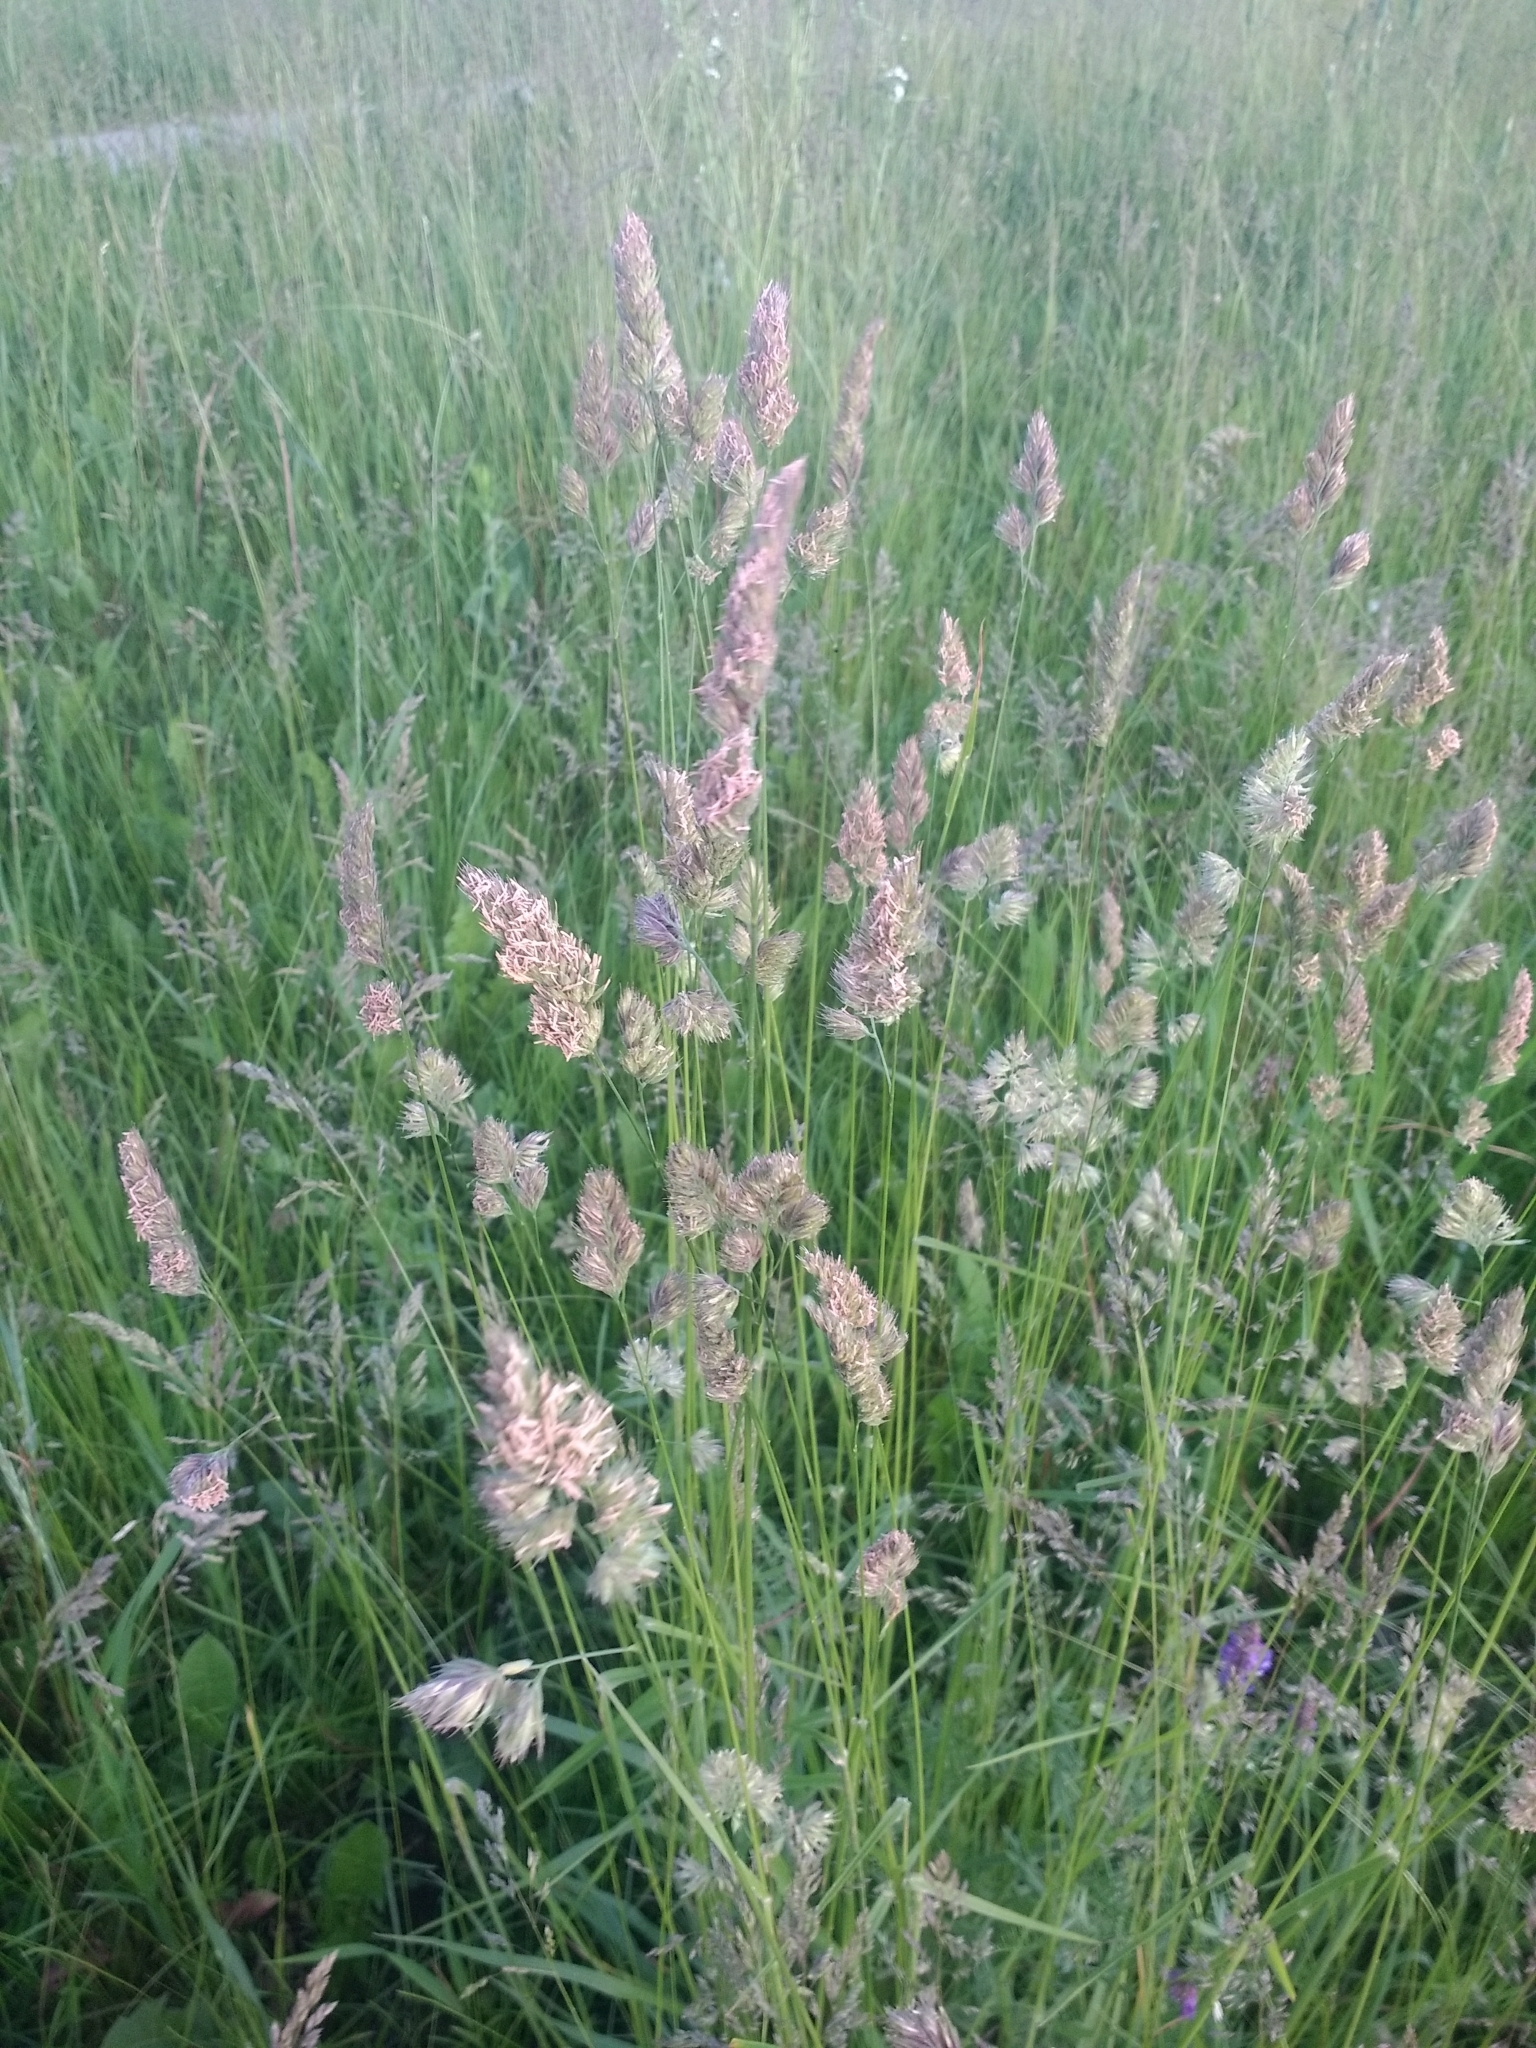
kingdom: Plantae
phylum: Tracheophyta
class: Liliopsida
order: Poales
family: Poaceae
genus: Dactylis
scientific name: Dactylis glomerata
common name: Orchardgrass
